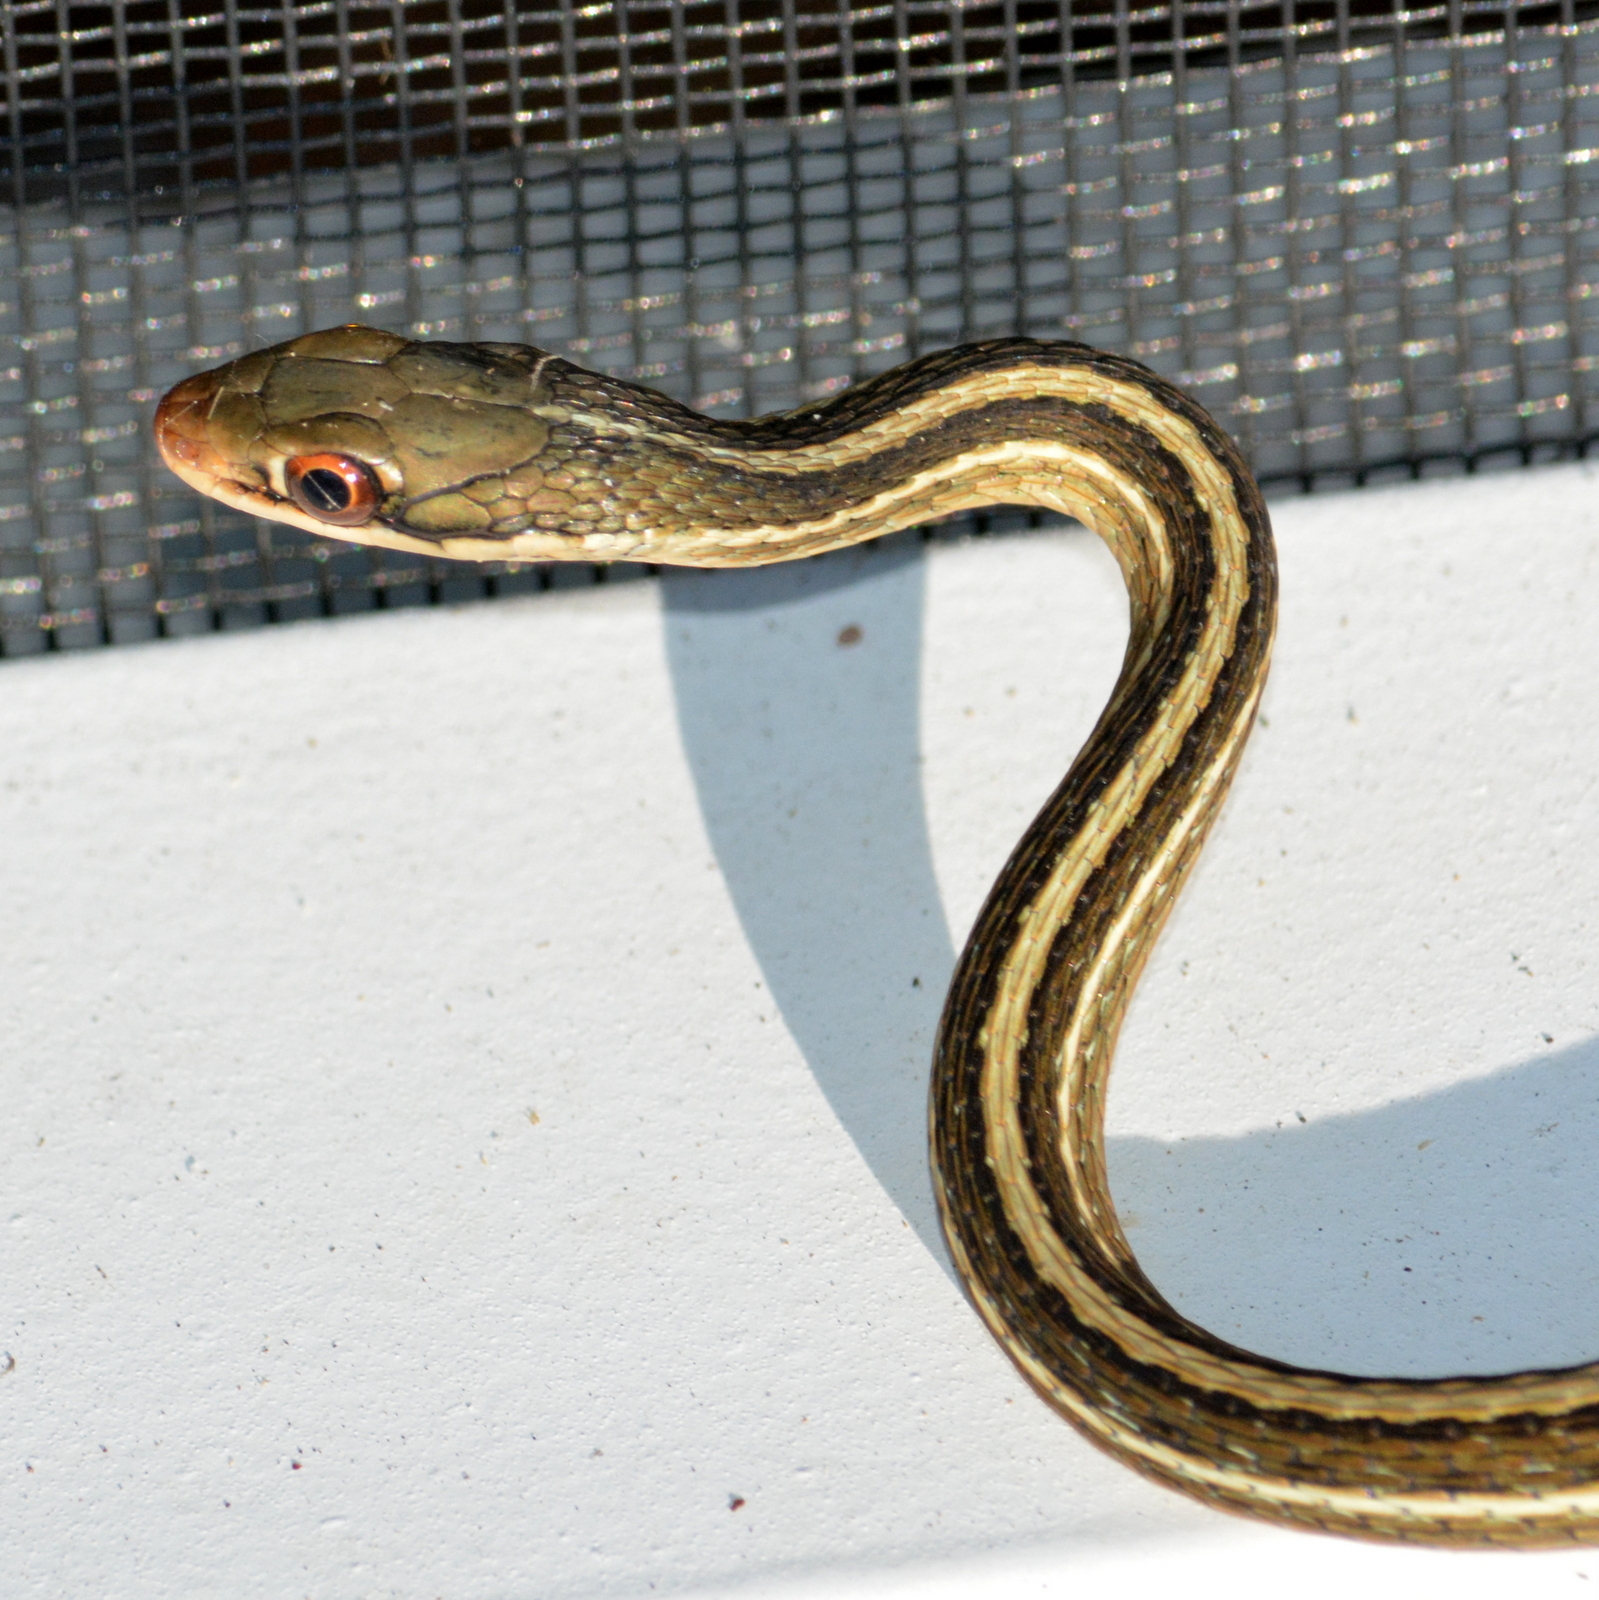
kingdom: Animalia
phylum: Chordata
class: Squamata
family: Colubridae
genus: Thamnophis
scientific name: Thamnophis saurita
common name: Eastern ribbonsnake
